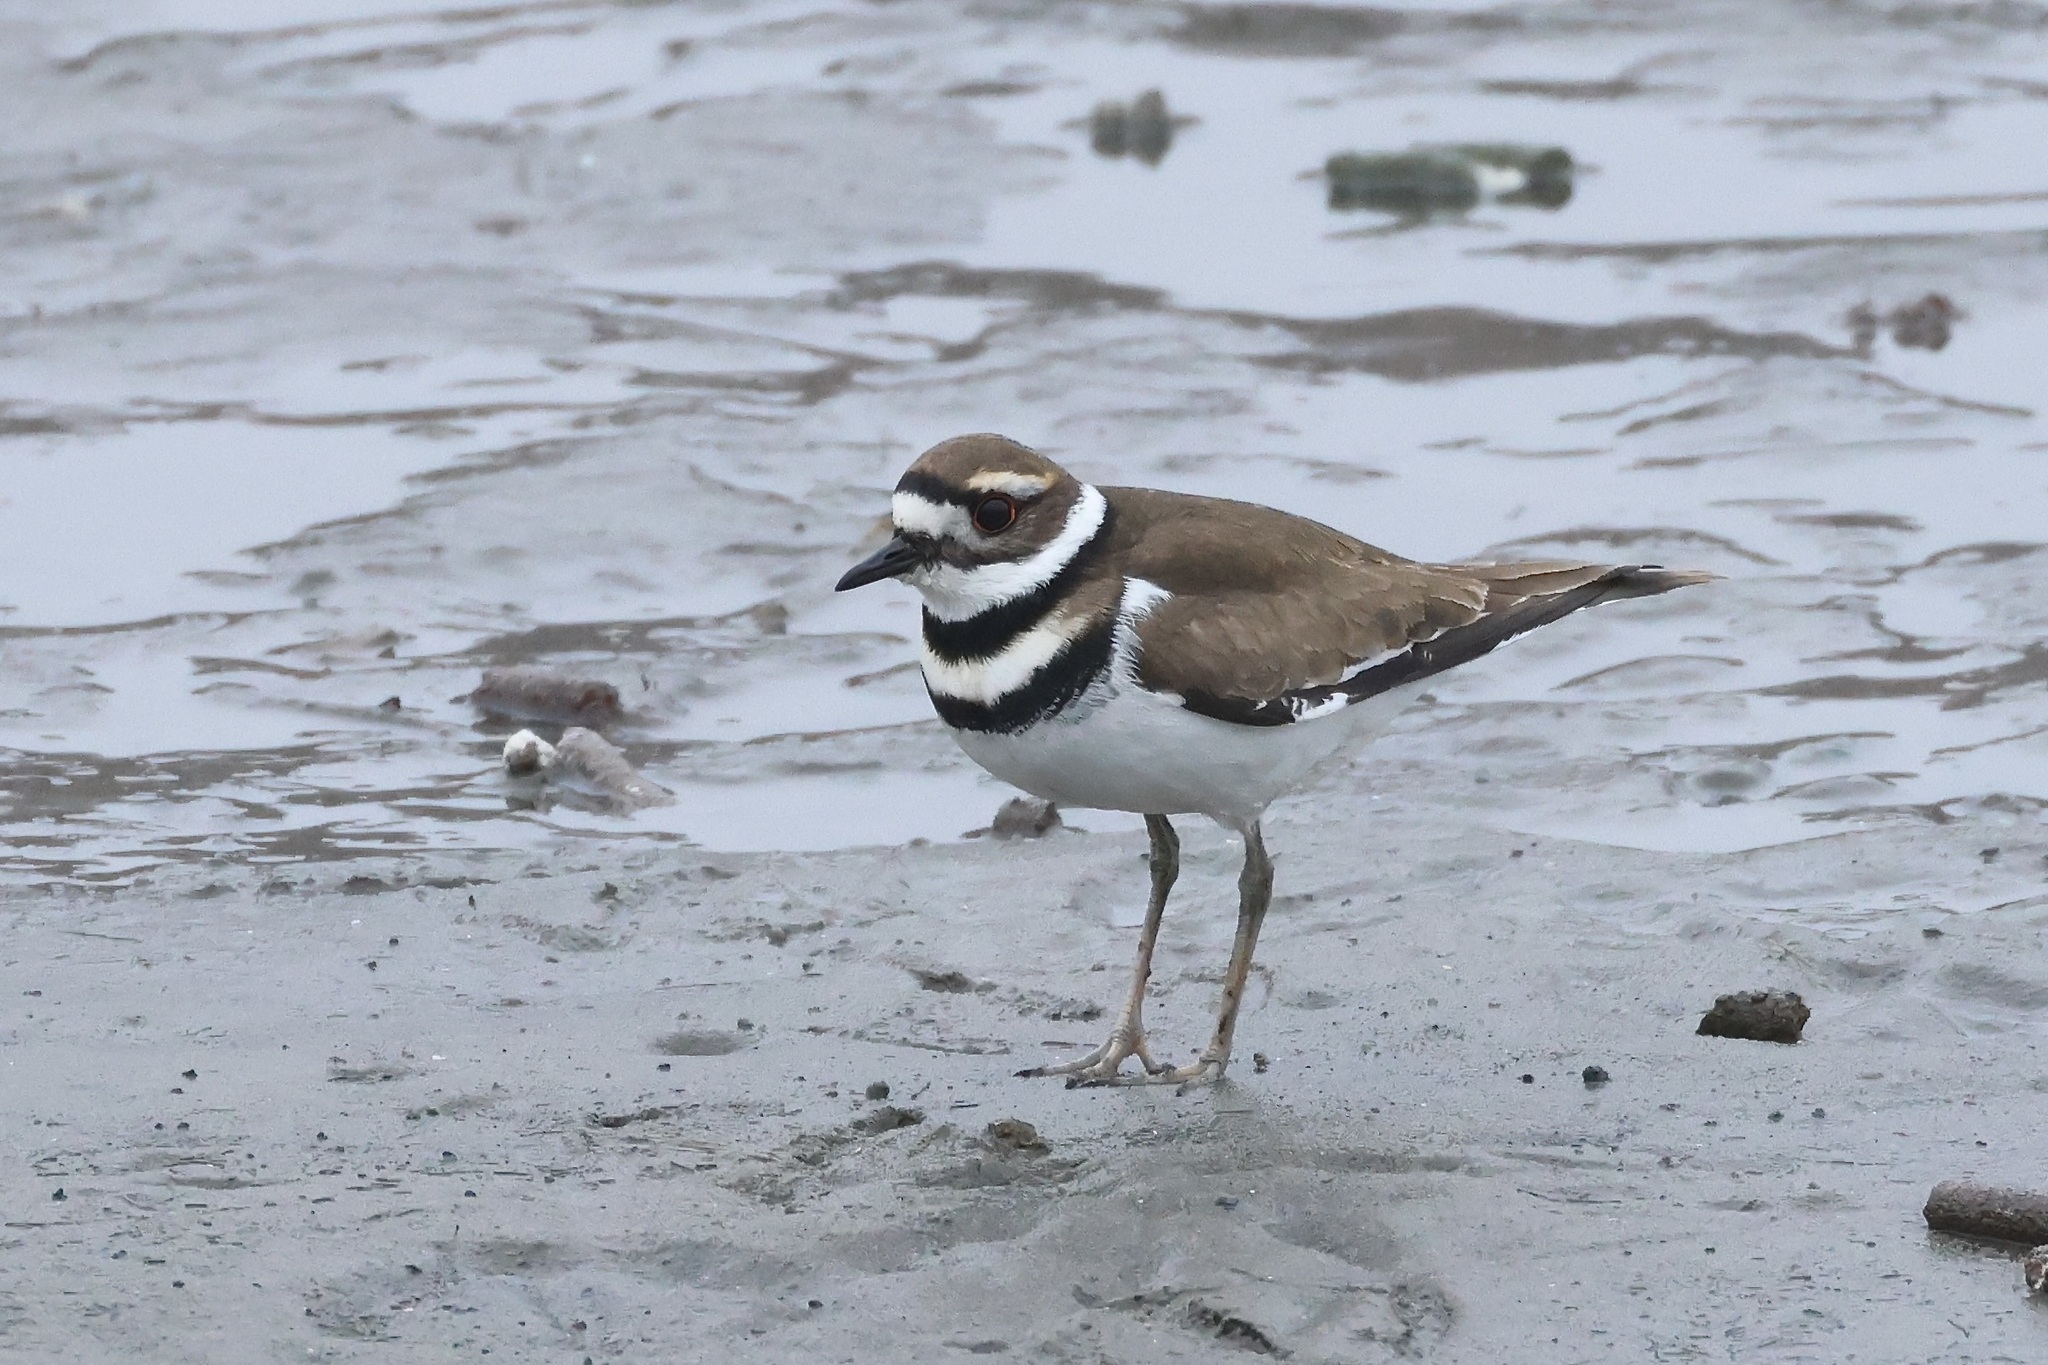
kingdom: Animalia
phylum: Chordata
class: Aves
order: Charadriiformes
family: Charadriidae
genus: Charadrius
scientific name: Charadrius vociferus
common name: Killdeer
